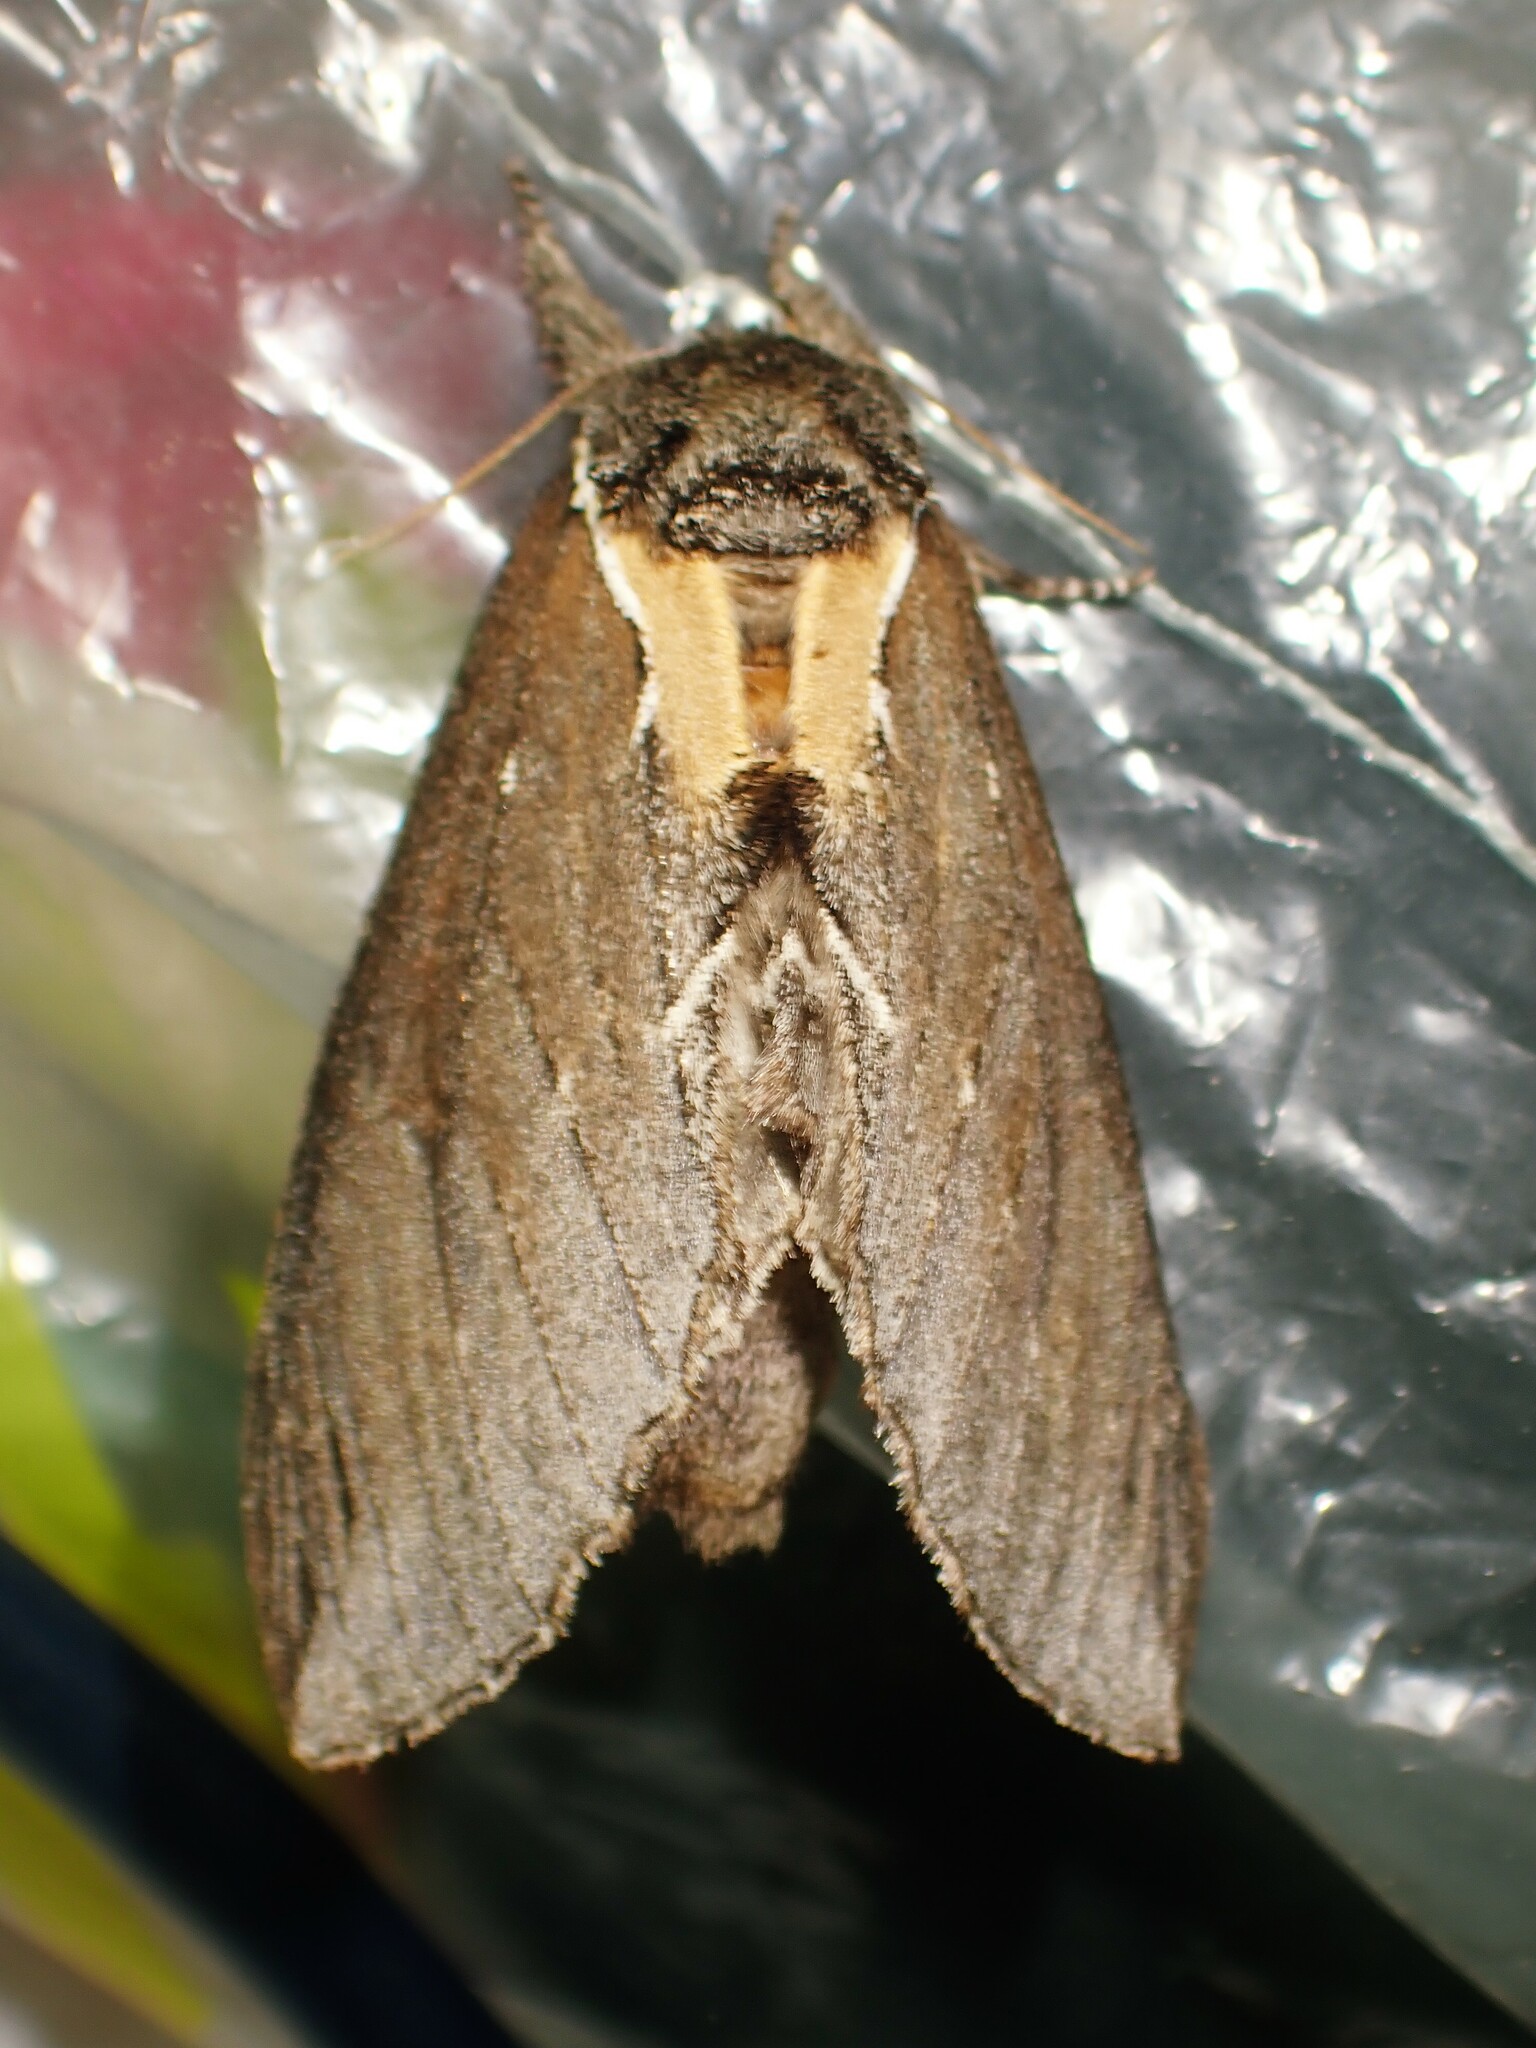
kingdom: Animalia
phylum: Arthropoda
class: Insecta
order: Lepidoptera
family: Notodontidae
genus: Pheosidea
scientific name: Pheosidea elegans
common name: Elegant prominent
